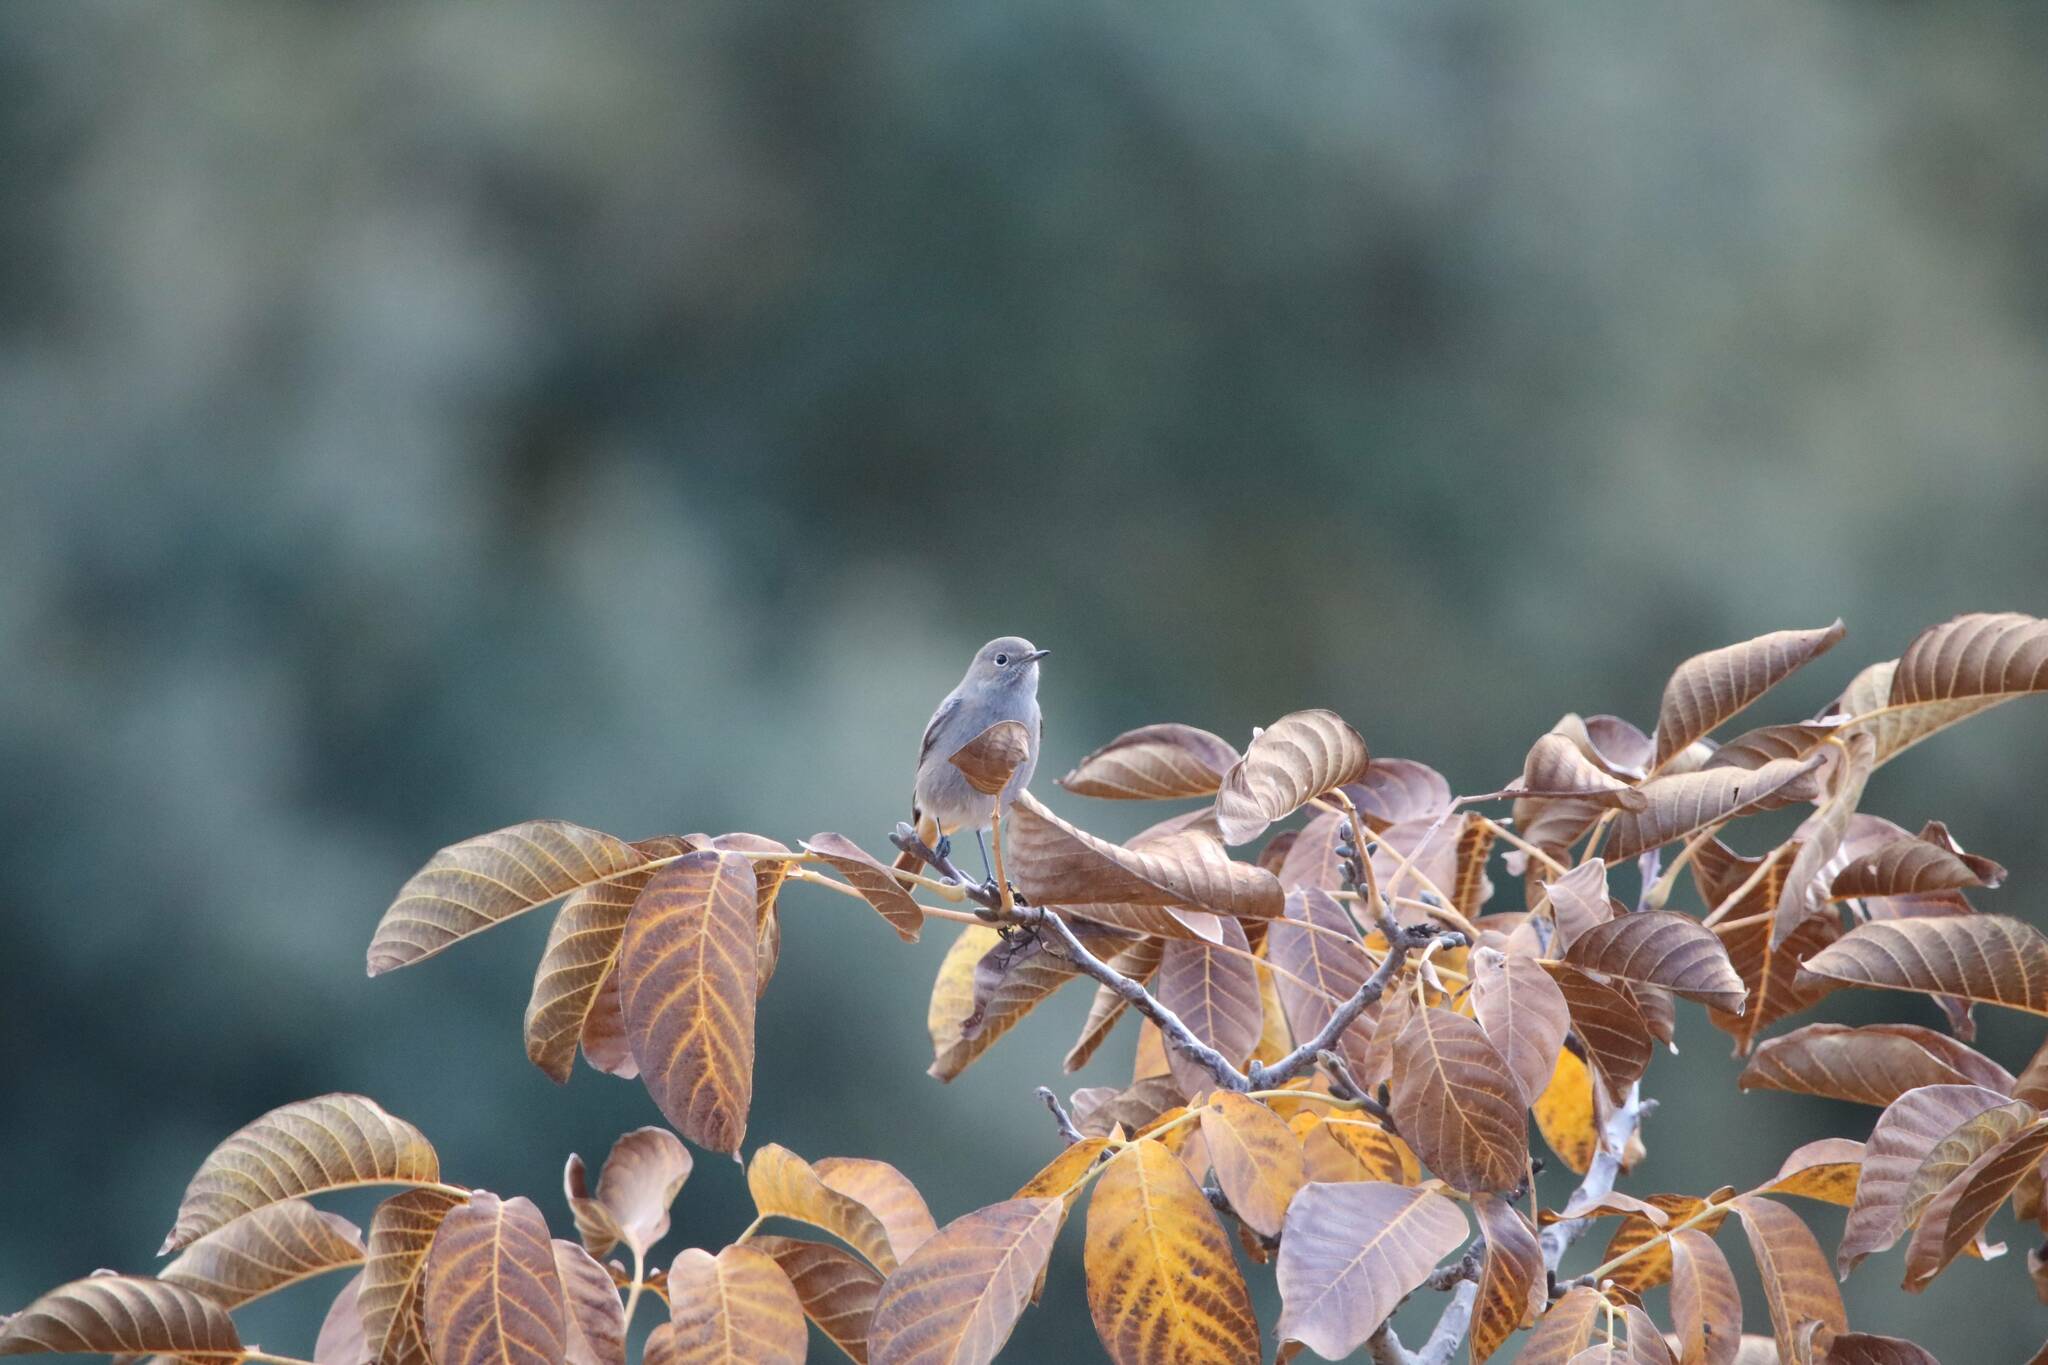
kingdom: Animalia
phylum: Chordata
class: Aves
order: Passeriformes
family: Muscicapidae
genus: Phoenicurus
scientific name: Phoenicurus ochruros
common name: Black redstart
